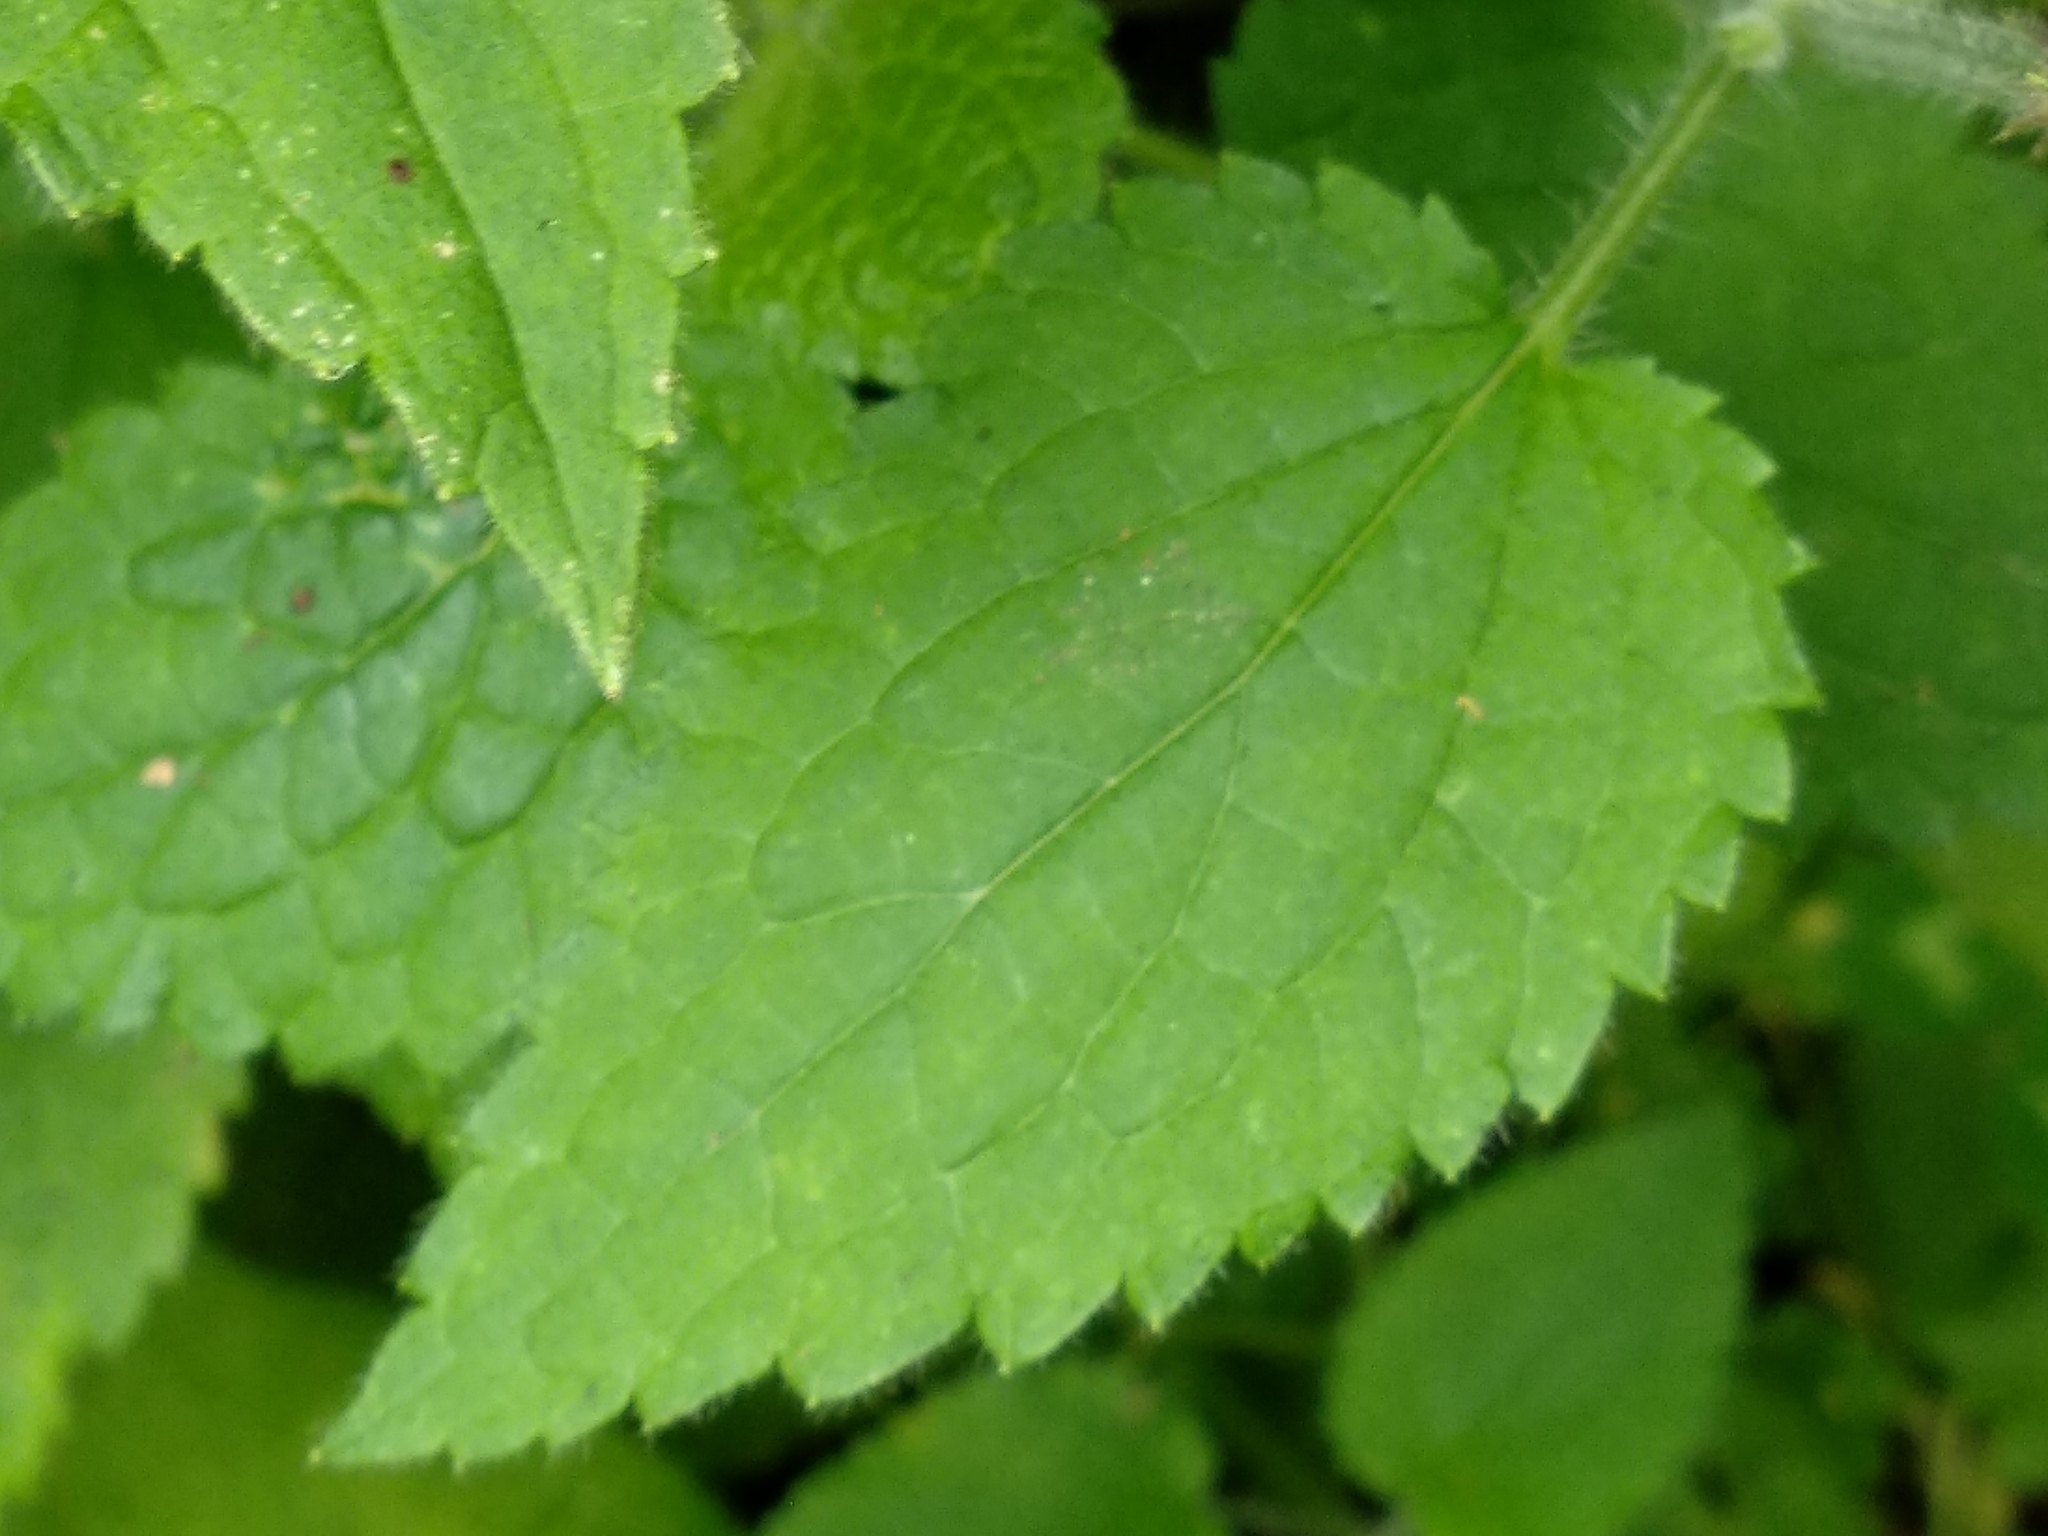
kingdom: Plantae
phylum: Tracheophyta
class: Magnoliopsida
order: Lamiales
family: Lamiaceae
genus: Stachys
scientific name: Stachys sylvatica
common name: Hedge woundwort
